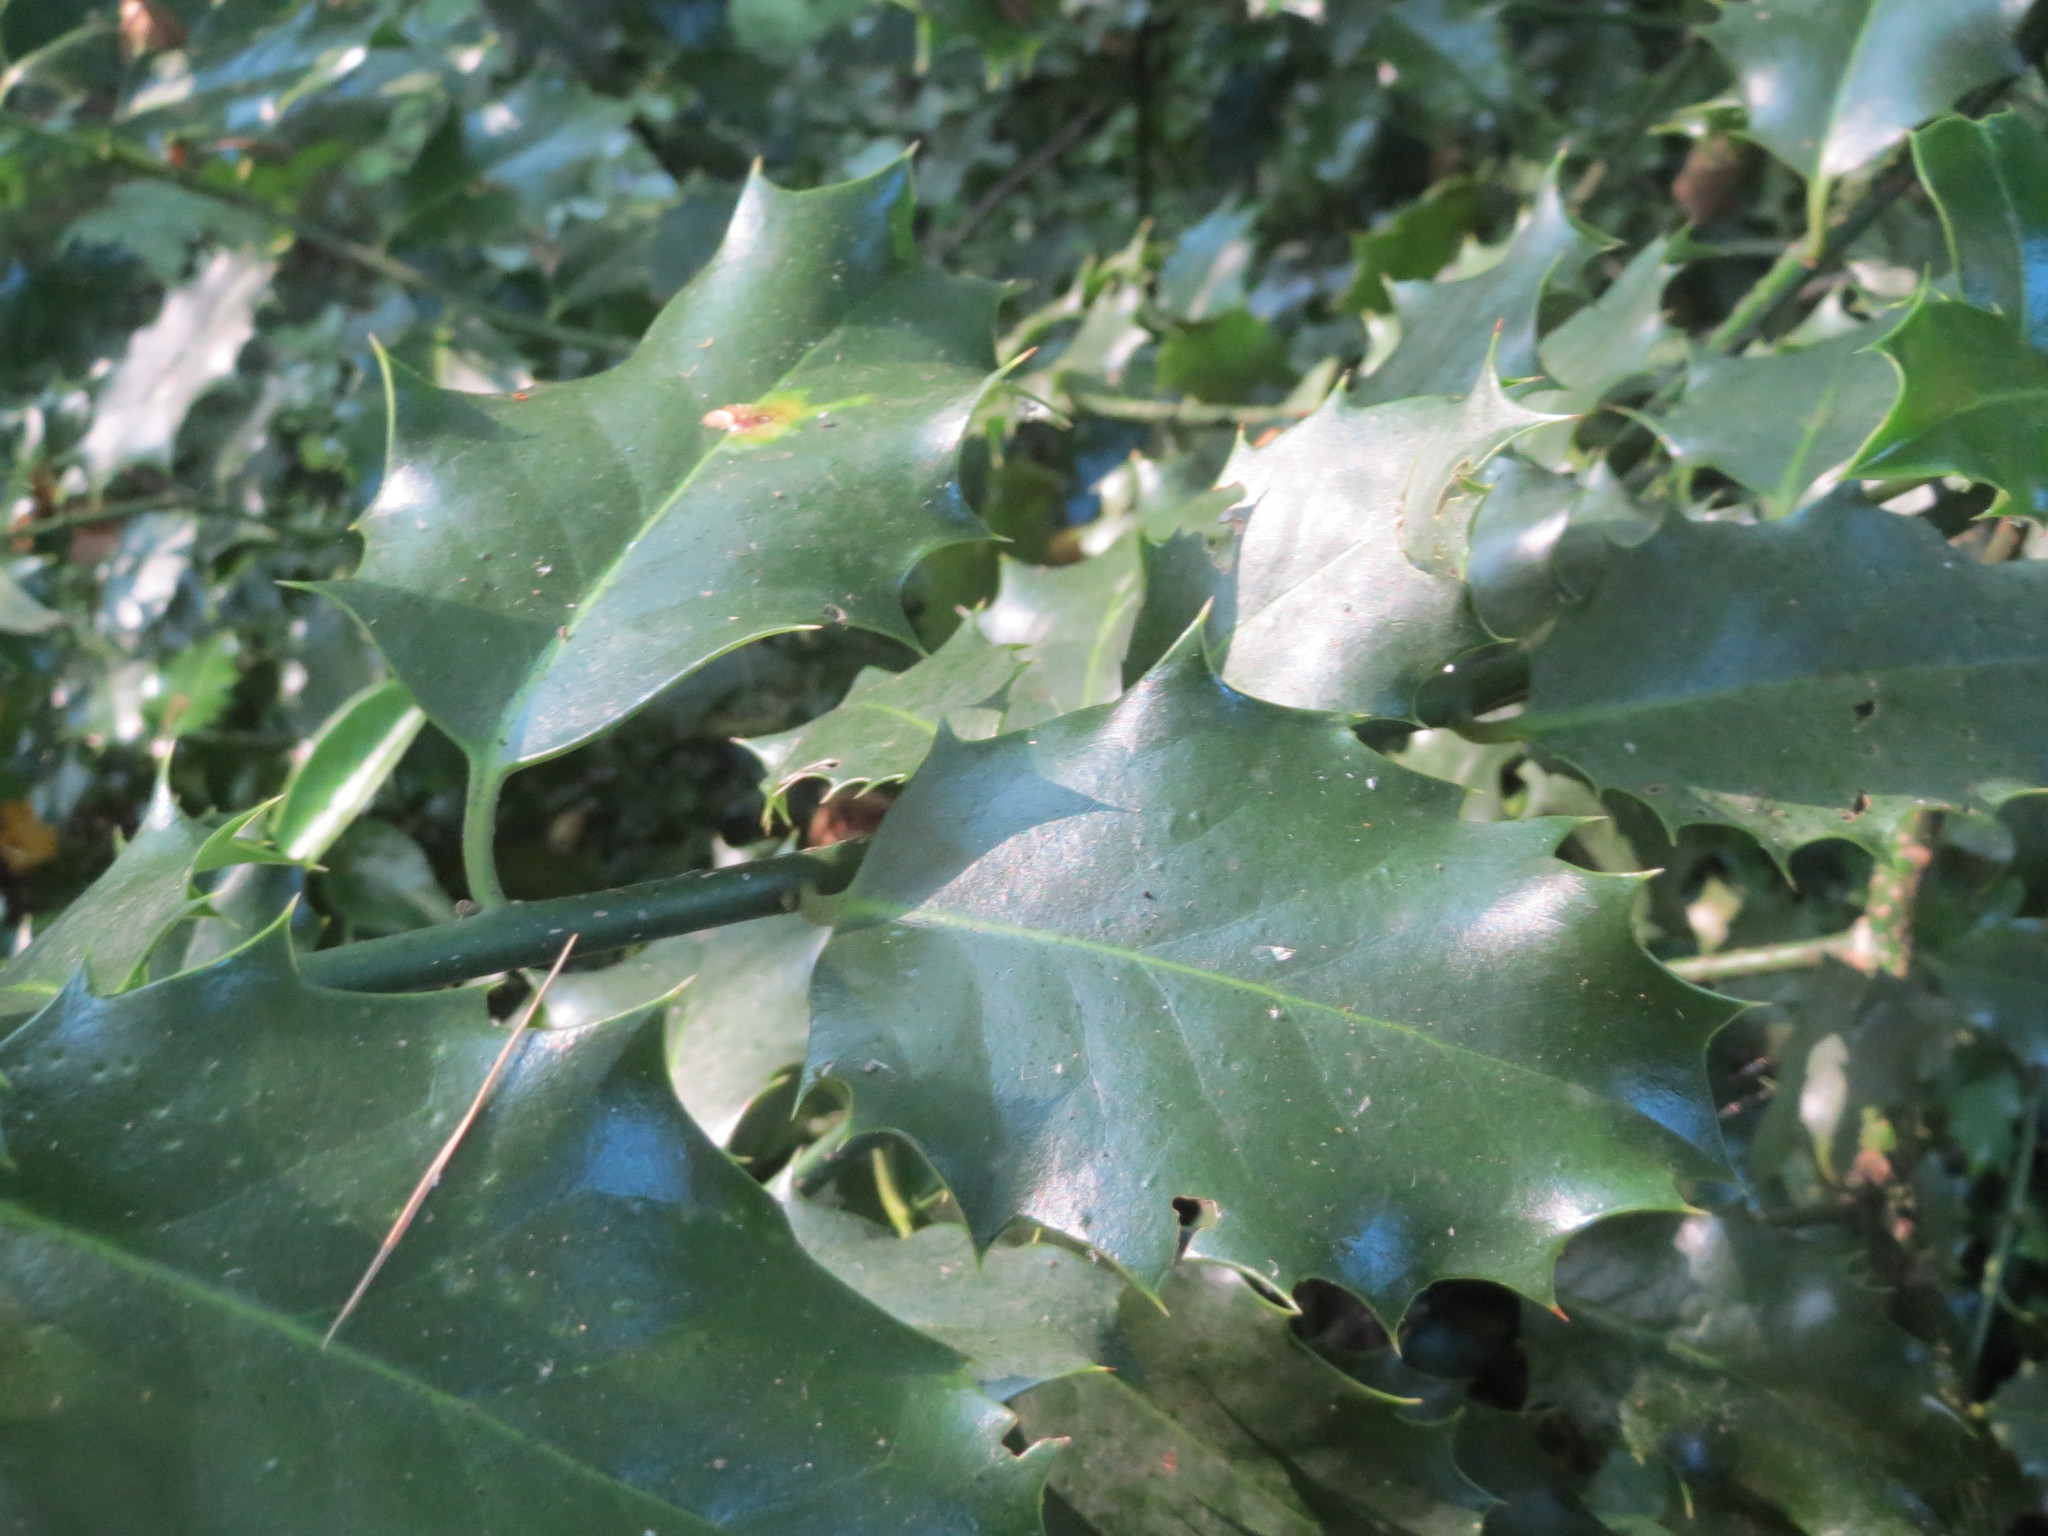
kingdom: Plantae
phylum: Tracheophyta
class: Magnoliopsida
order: Aquifoliales
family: Aquifoliaceae
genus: Ilex
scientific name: Ilex aquifolium
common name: English holly
